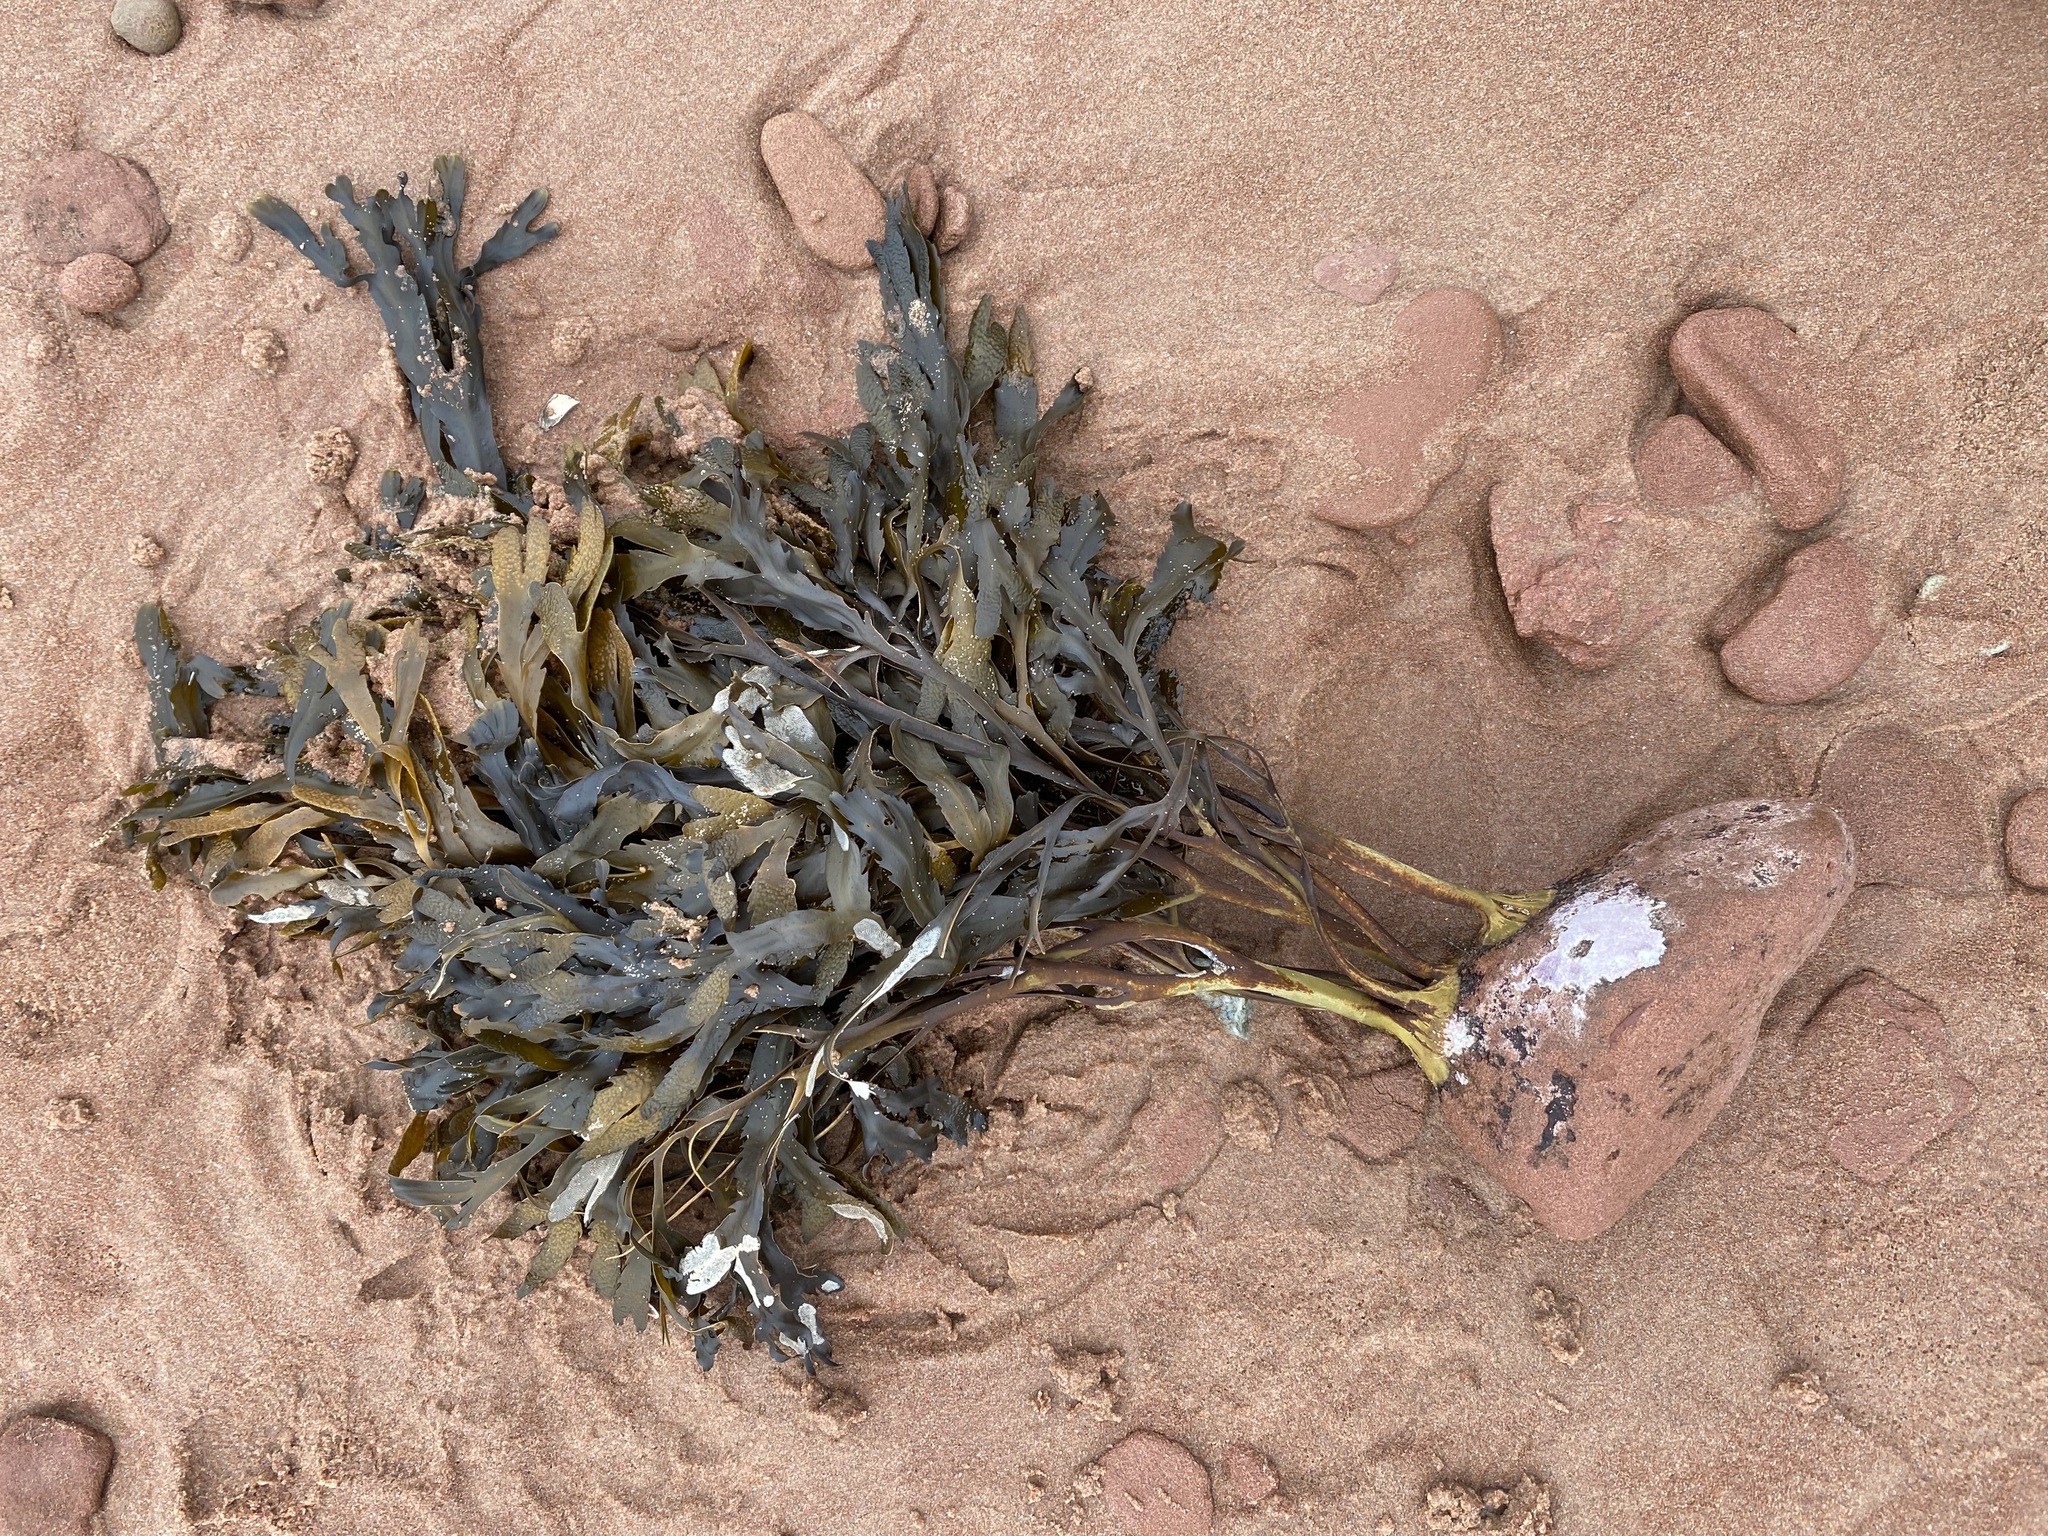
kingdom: Chromista
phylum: Ochrophyta
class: Phaeophyceae
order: Fucales
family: Fucaceae
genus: Fucus
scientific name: Fucus serratus
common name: Toothed wrack
